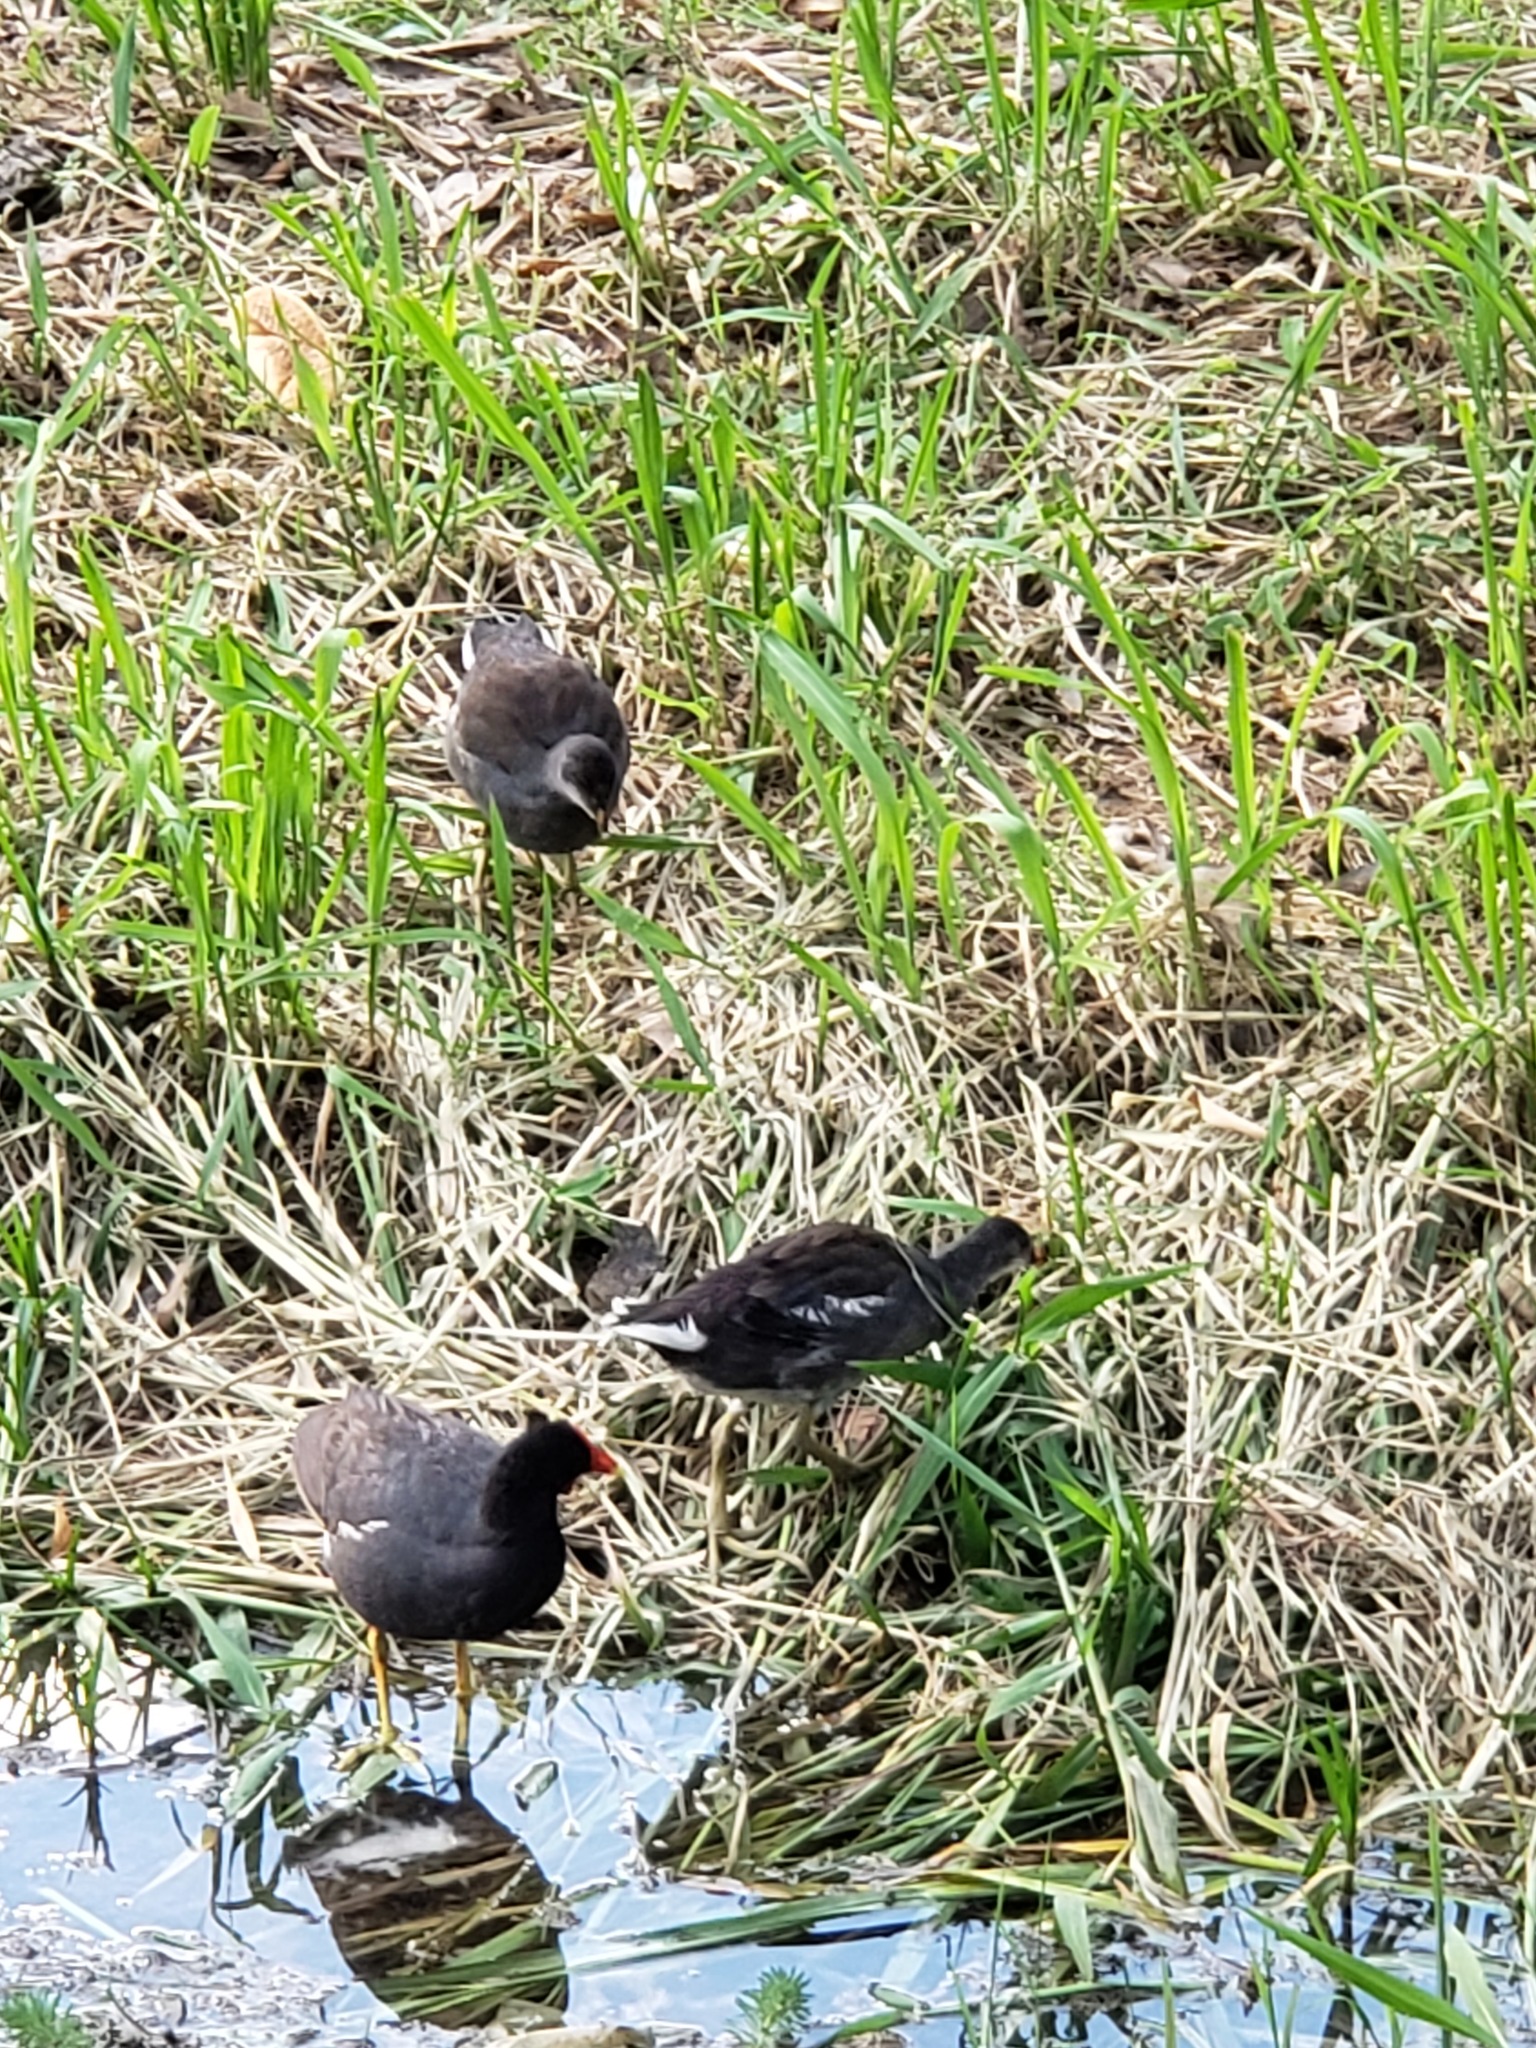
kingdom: Animalia
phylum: Chordata
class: Aves
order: Gruiformes
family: Rallidae
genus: Gallinula
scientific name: Gallinula chloropus
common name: Common moorhen
